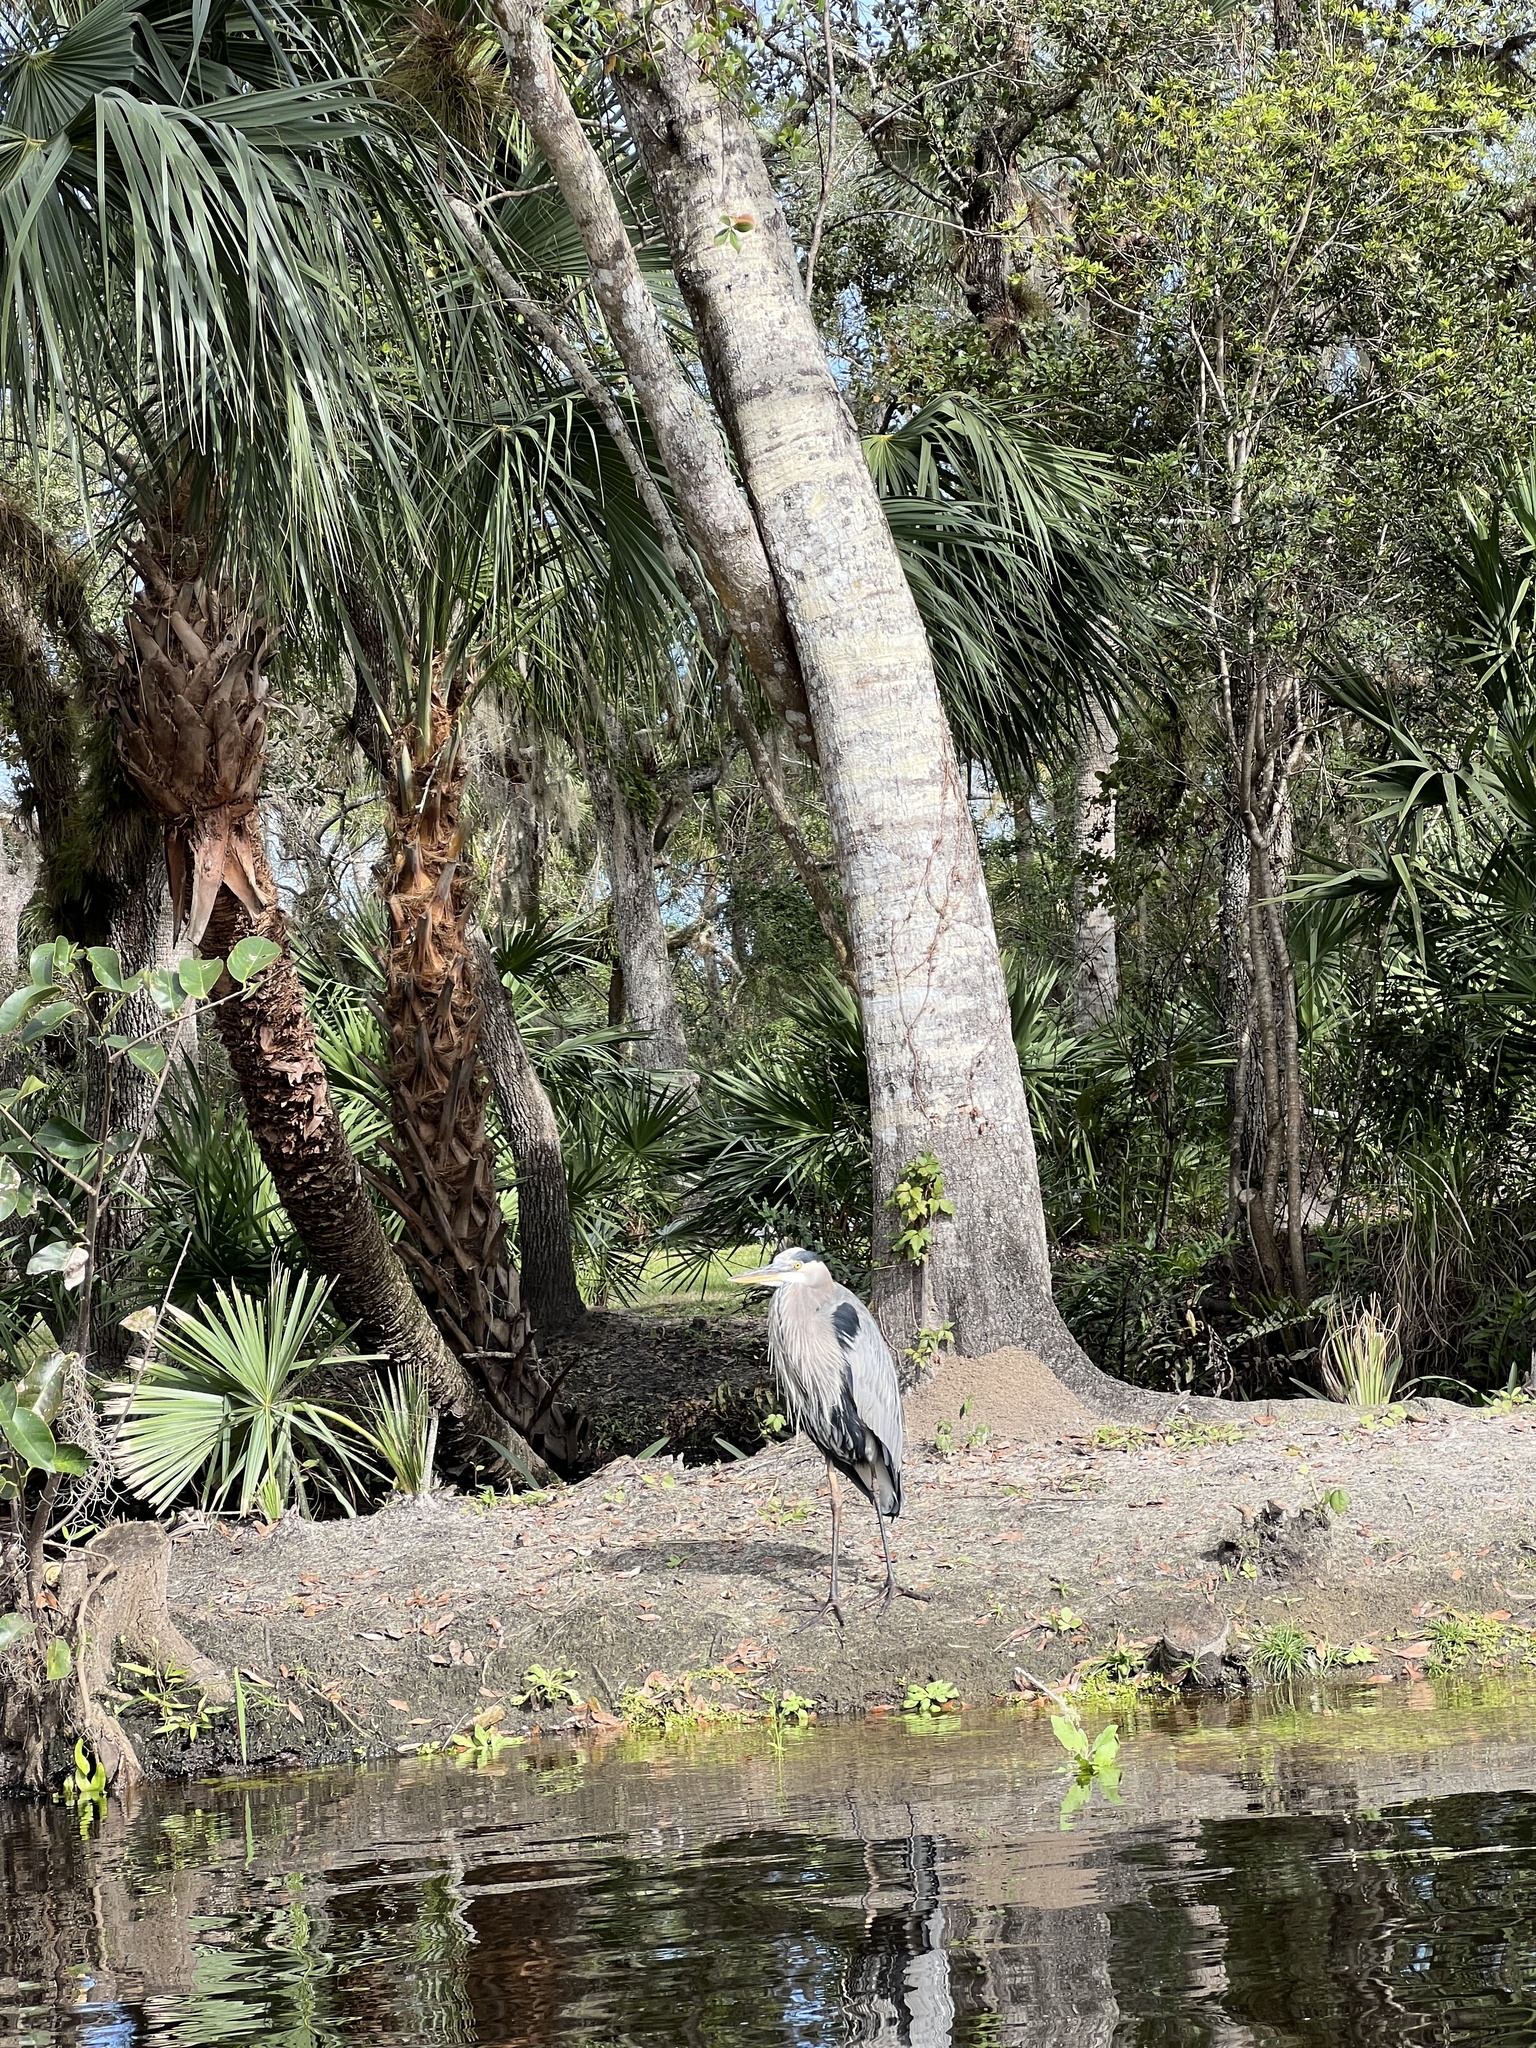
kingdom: Animalia
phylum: Chordata
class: Aves
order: Pelecaniformes
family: Ardeidae
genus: Ardea
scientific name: Ardea herodias
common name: Great blue heron
